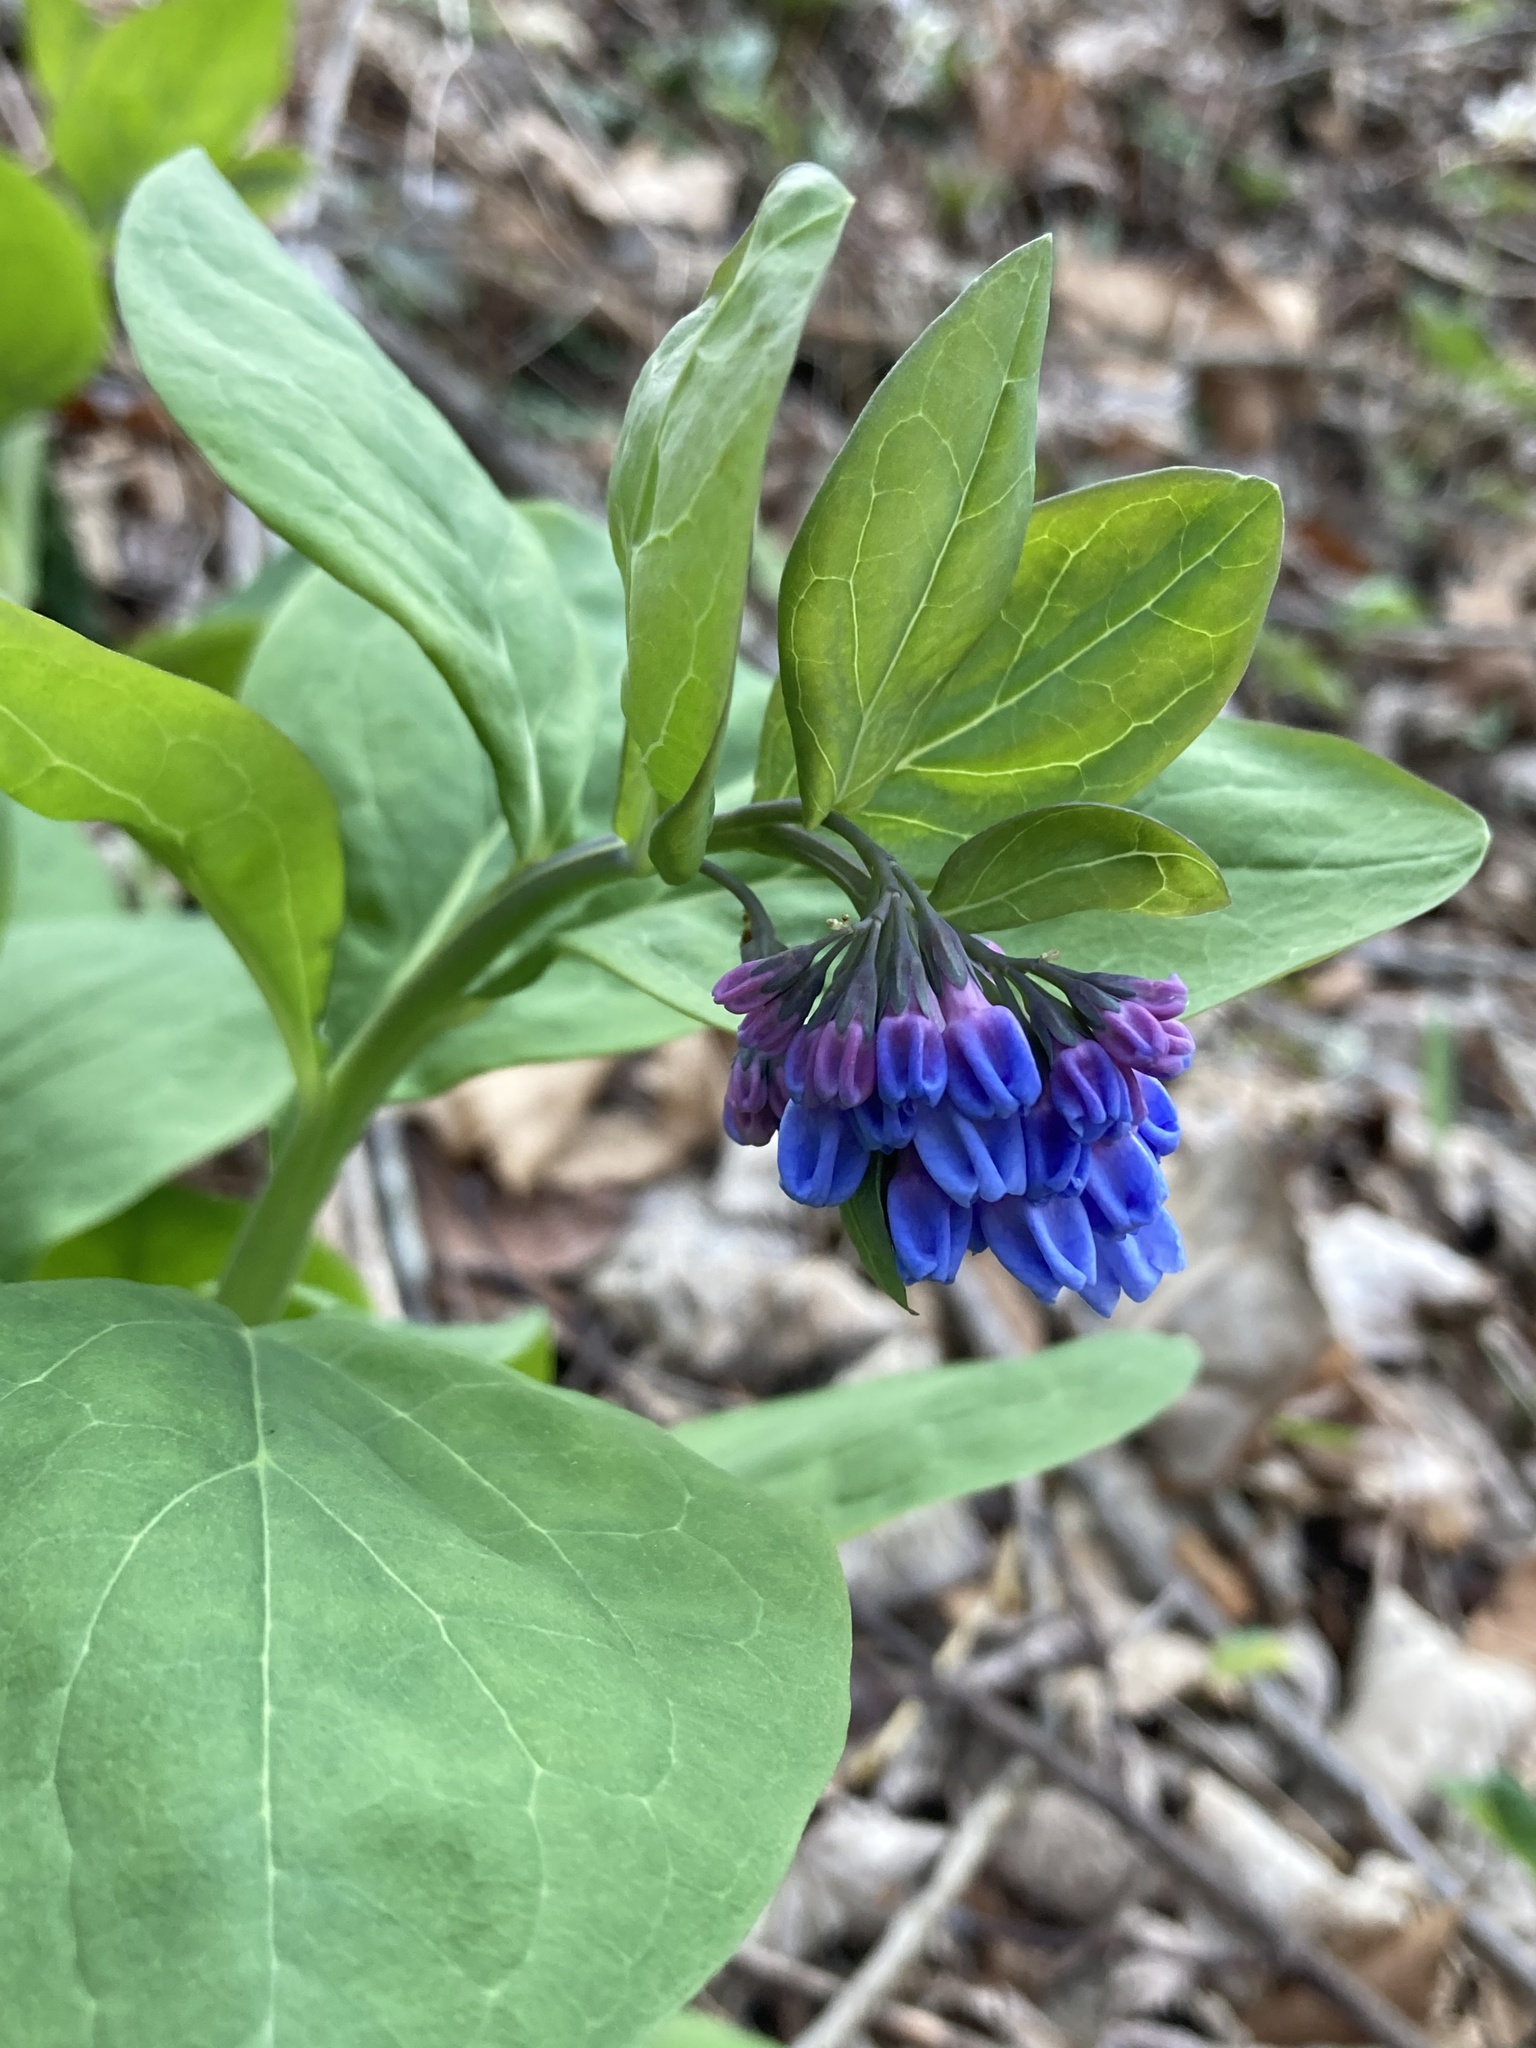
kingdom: Plantae
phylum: Tracheophyta
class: Magnoliopsida
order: Boraginales
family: Boraginaceae
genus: Mertensia
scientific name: Mertensia virginica
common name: Virginia bluebells
